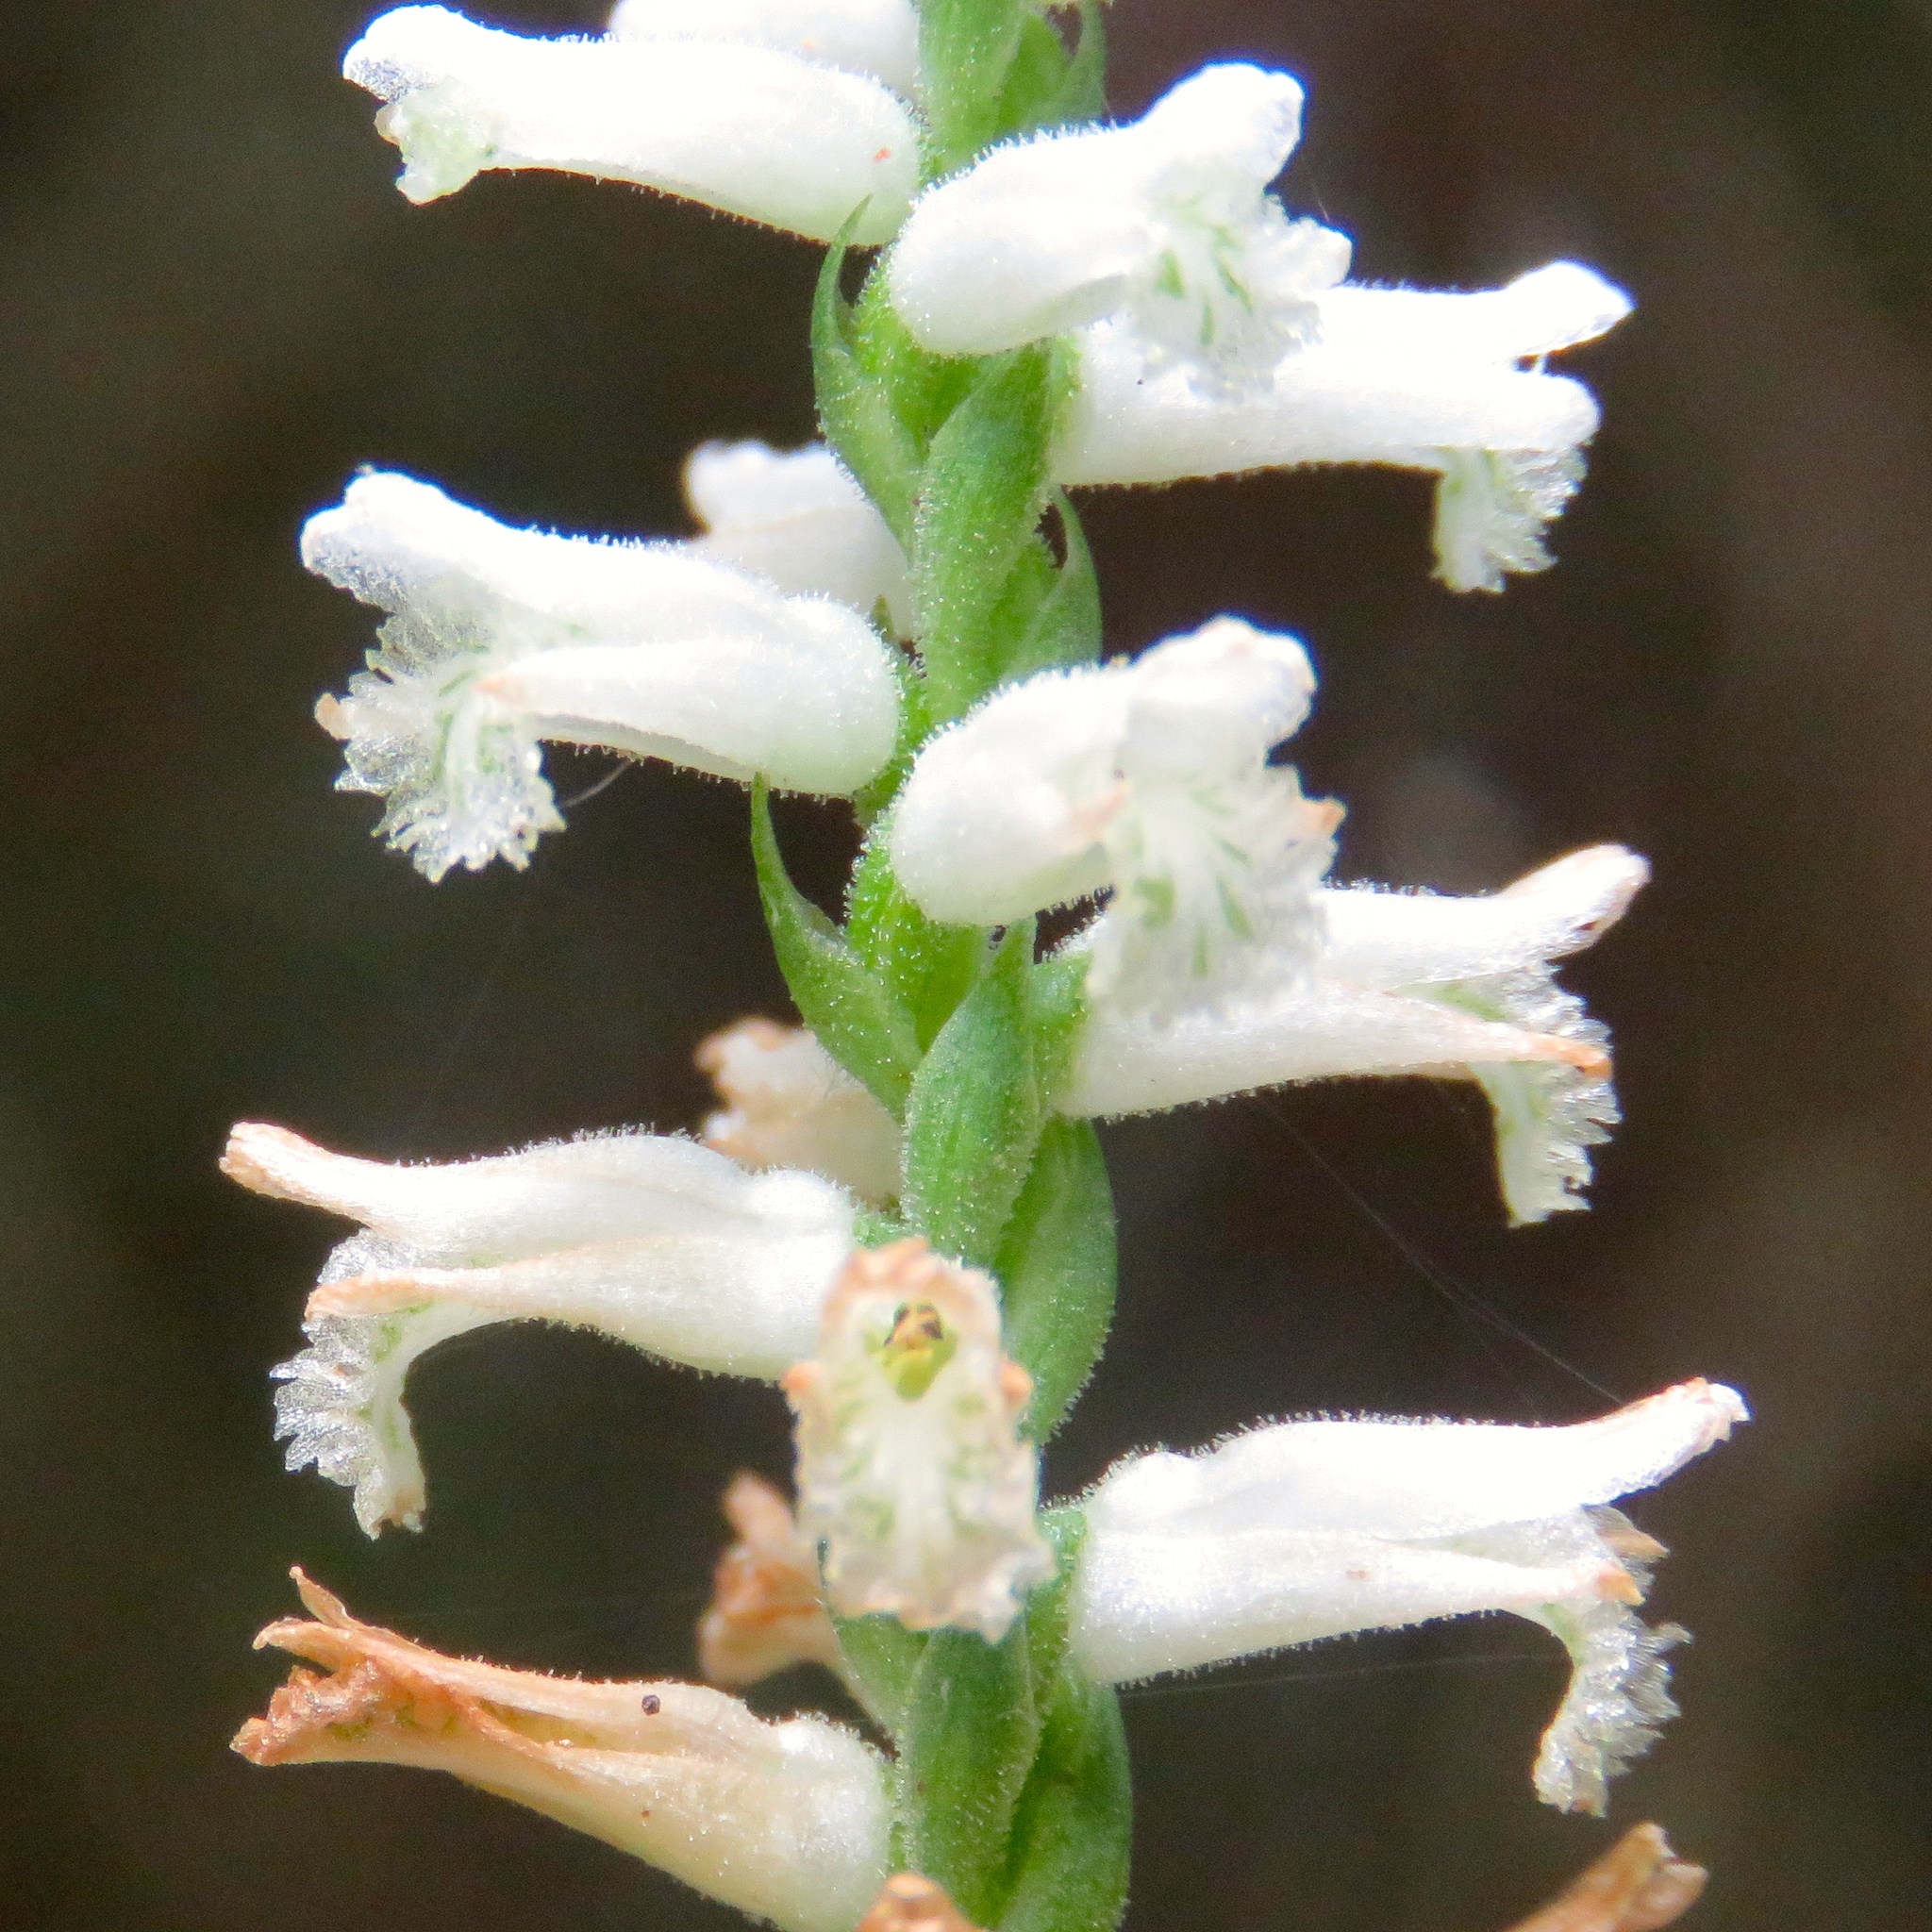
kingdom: Plantae
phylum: Tracheophyta
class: Liliopsida
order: Asparagales
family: Orchidaceae
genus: Spiranthes
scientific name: Spiranthes praecox
